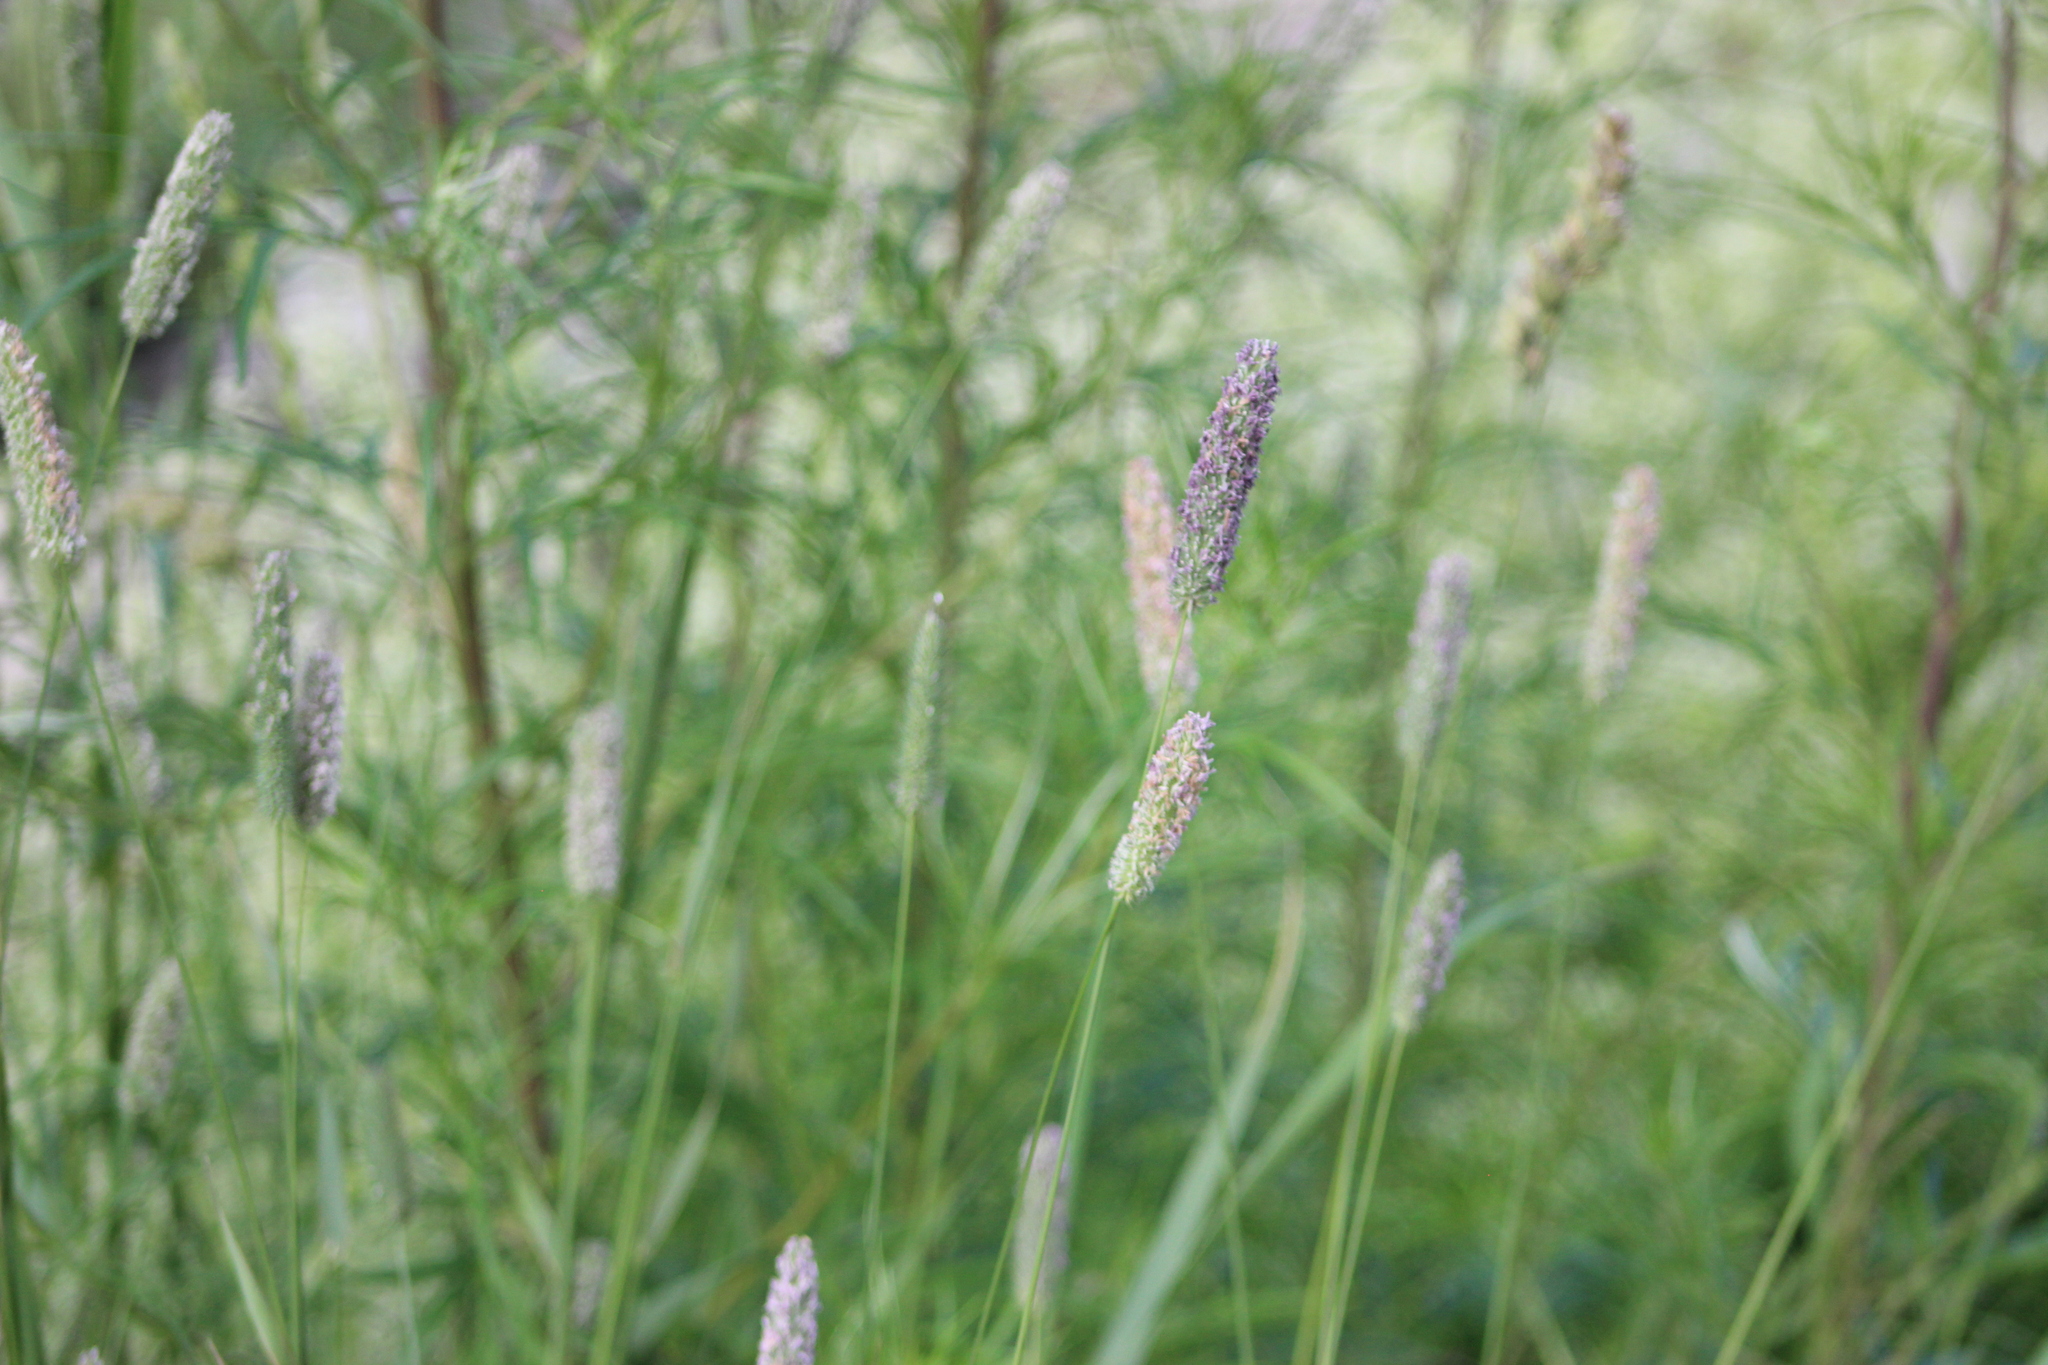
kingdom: Plantae
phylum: Tracheophyta
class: Liliopsida
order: Poales
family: Poaceae
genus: Phleum
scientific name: Phleum pratense
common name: Timothy grass
